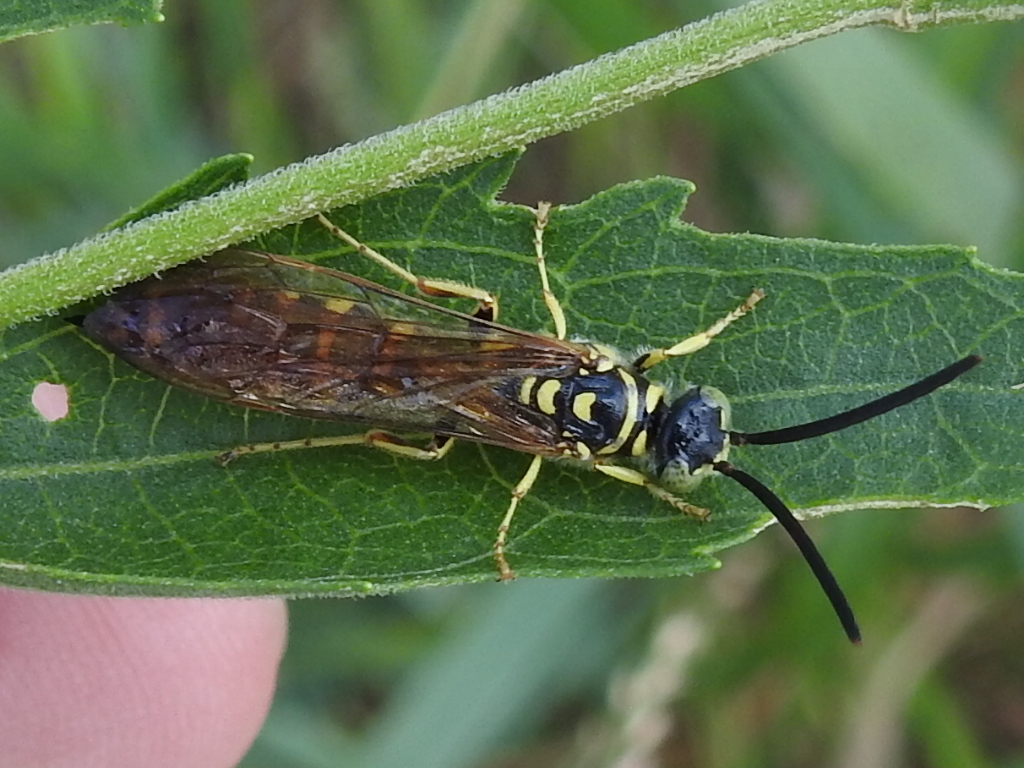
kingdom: Animalia
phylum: Arthropoda
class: Insecta
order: Hymenoptera
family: Tiphiidae
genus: Myzinum
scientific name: Myzinum quinquecinctum
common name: Five-banded thynnid wasp
